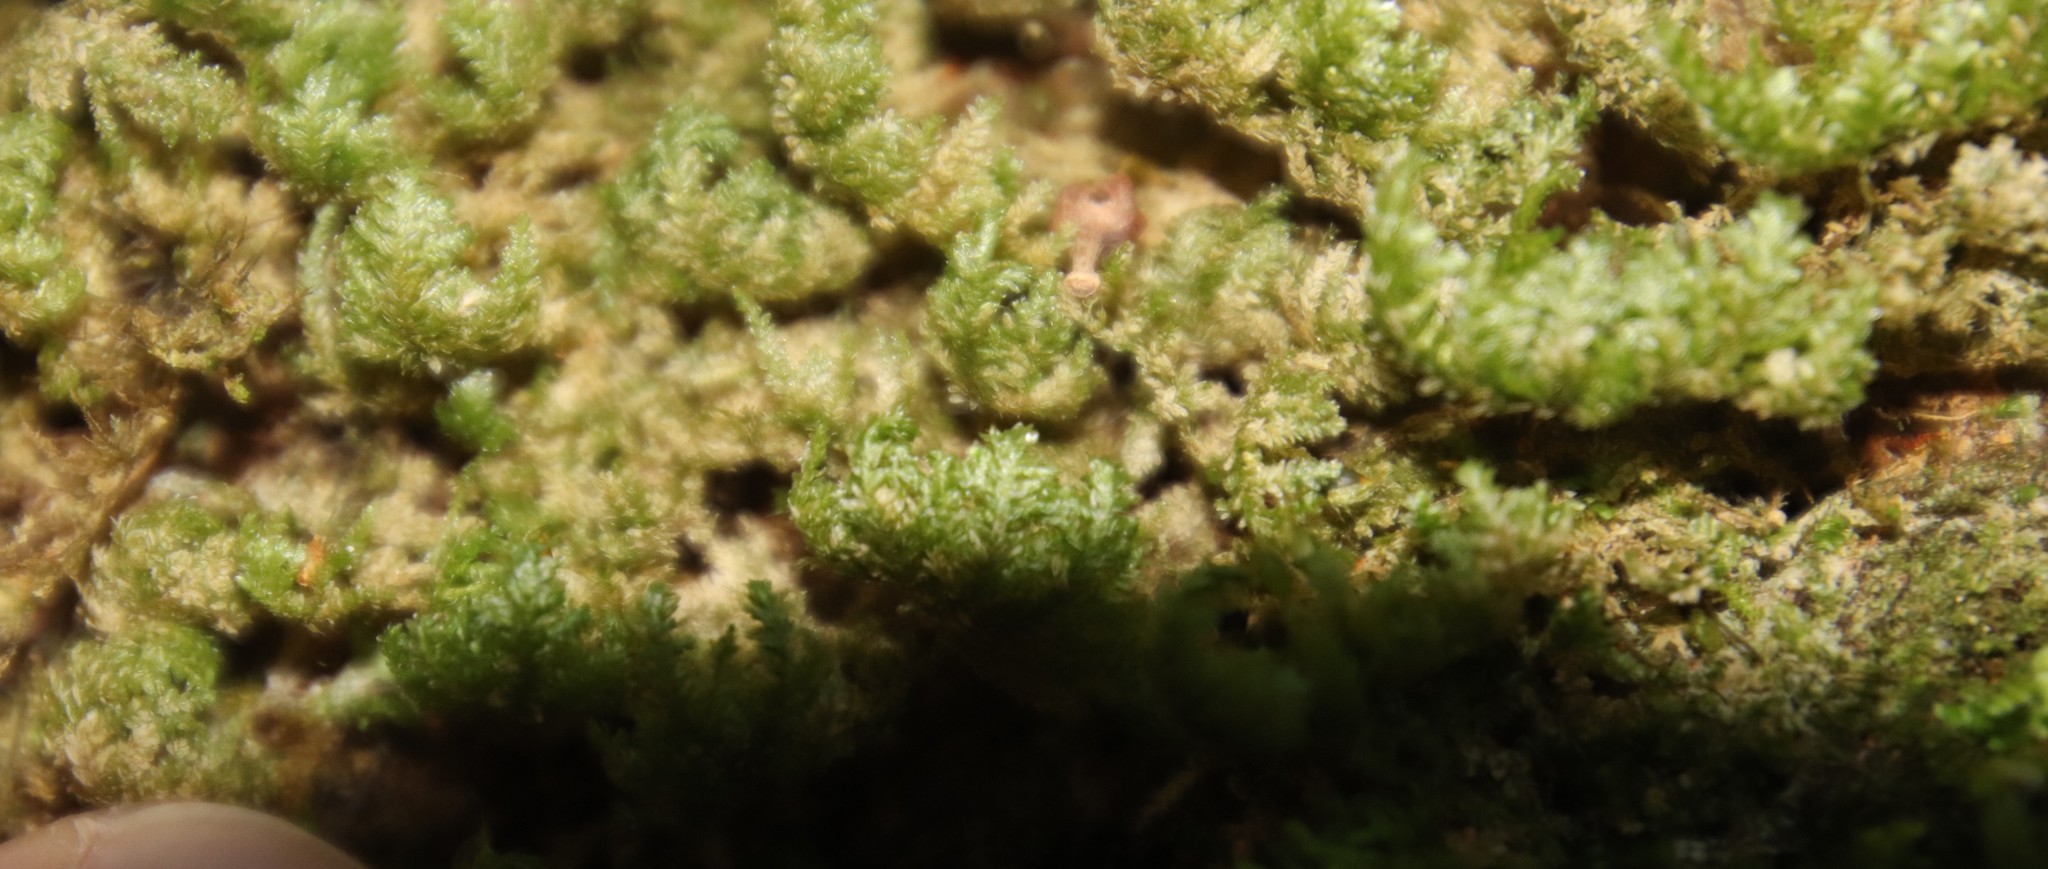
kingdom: Plantae
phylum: Bryophyta
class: Bryopsida
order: Hypnales
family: Neckeraceae
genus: Alleniella
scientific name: Alleniella ehrenbergii
